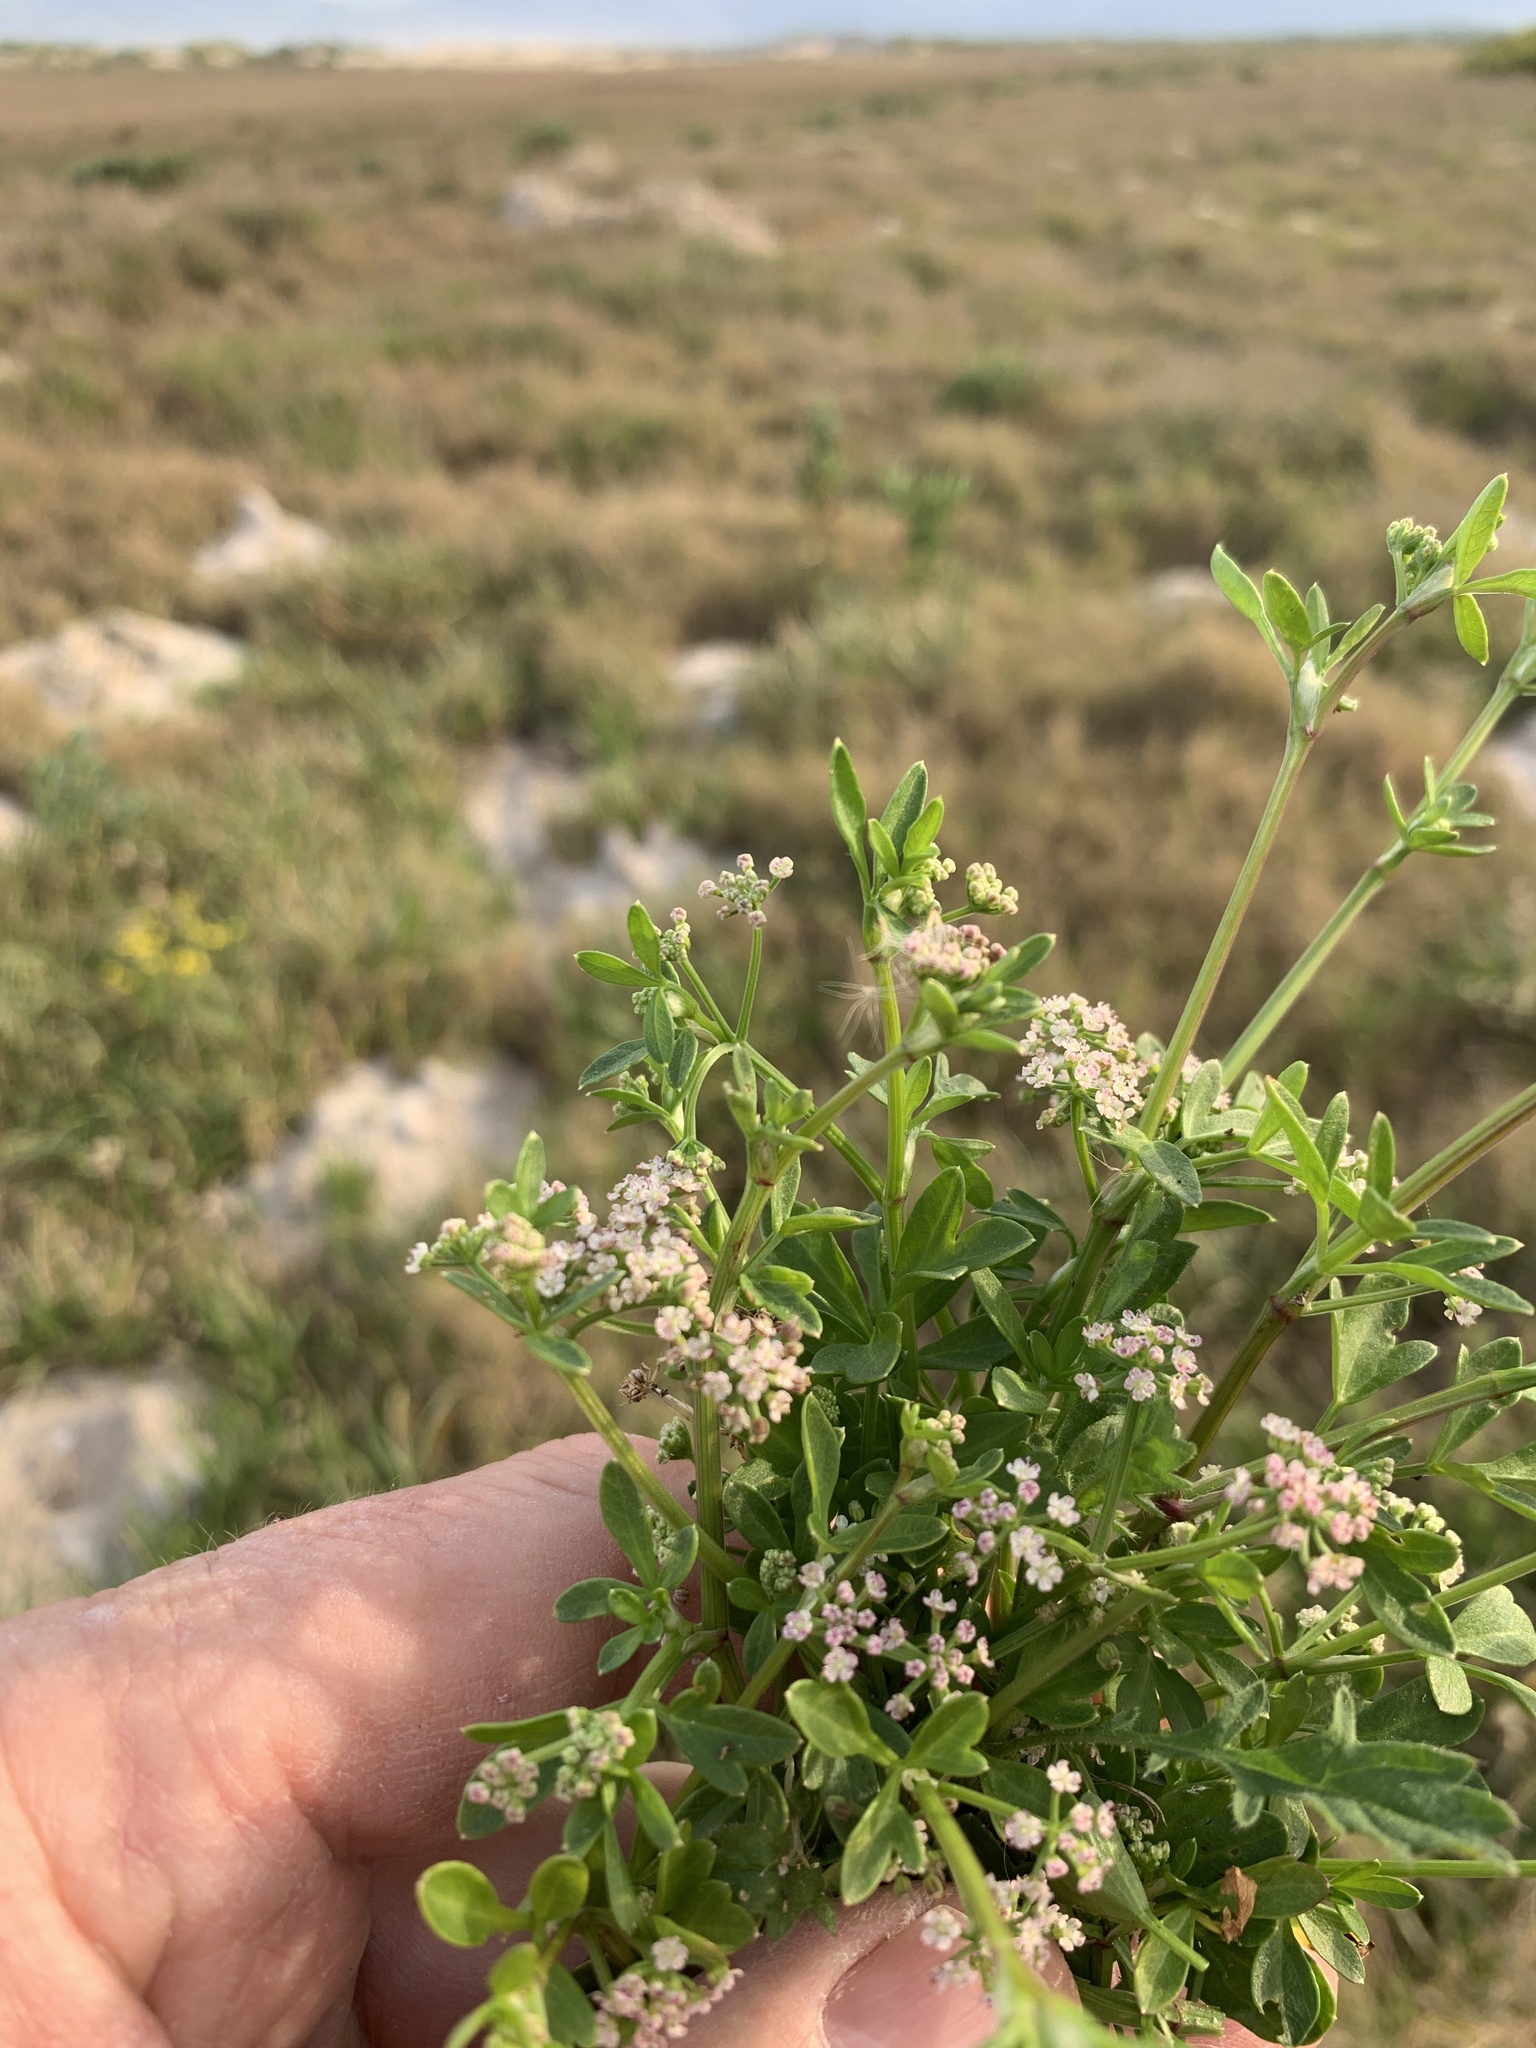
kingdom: Plantae
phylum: Tracheophyta
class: Magnoliopsida
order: Apiales
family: Apiaceae
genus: Apium
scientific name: Apium decumbens
